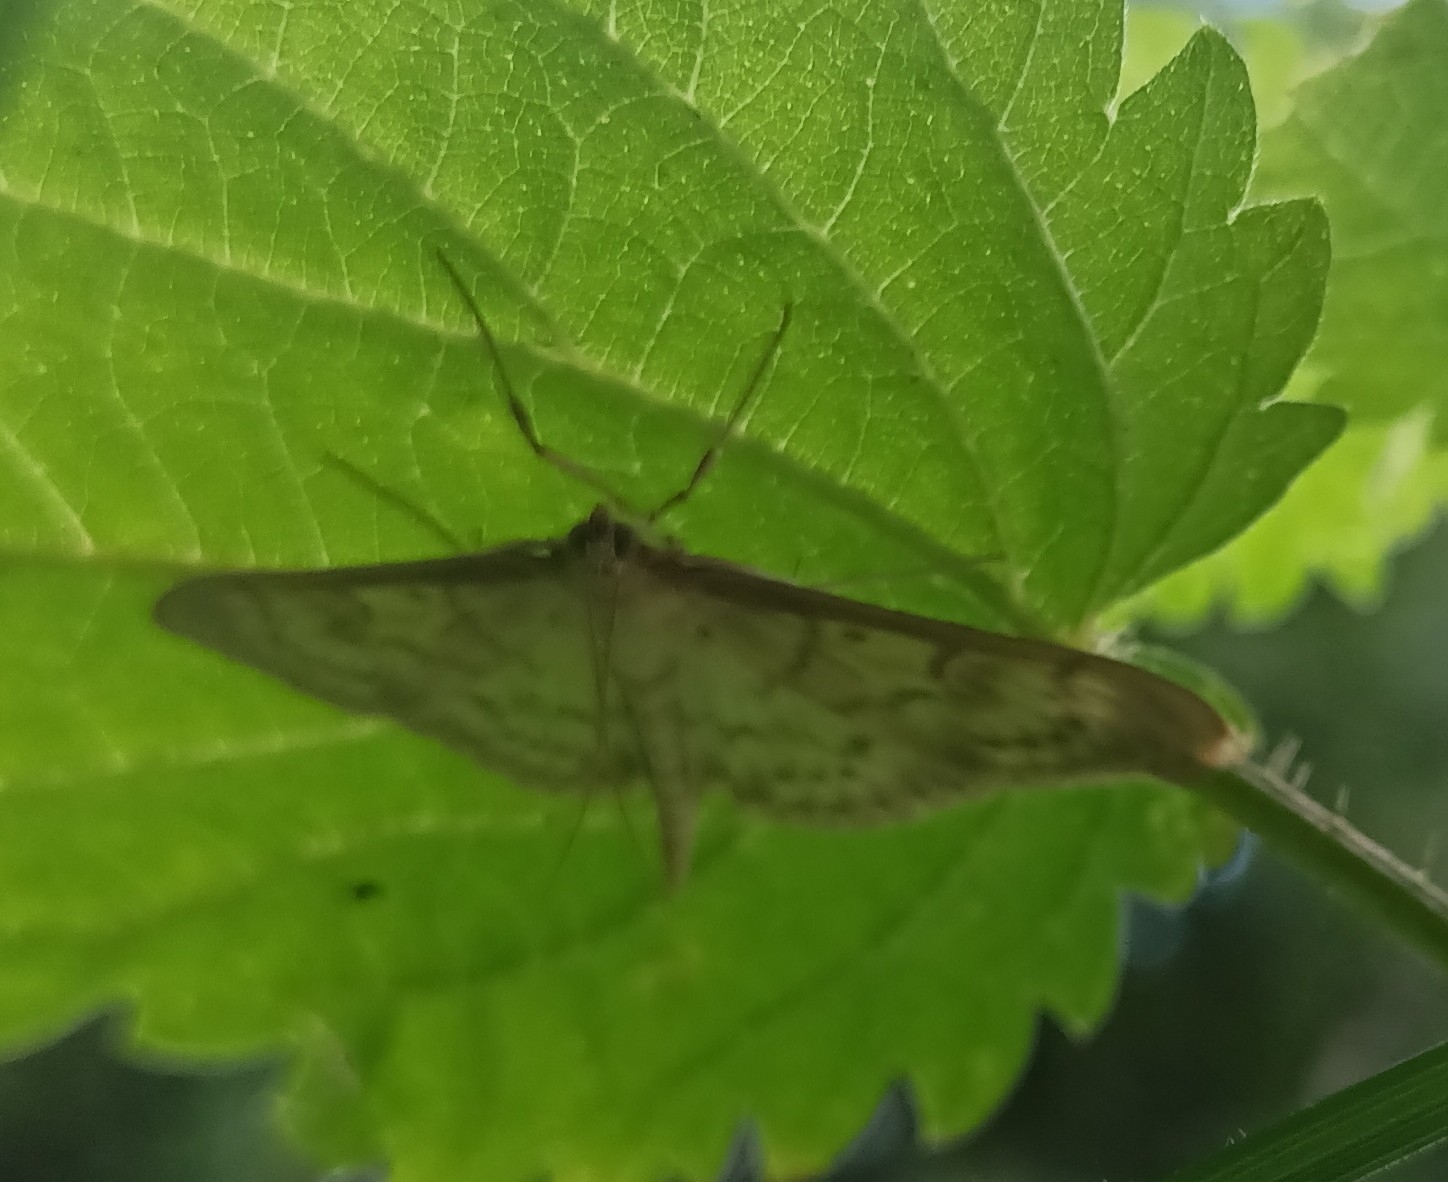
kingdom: Animalia
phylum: Arthropoda
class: Insecta
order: Lepidoptera
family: Crambidae
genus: Patania
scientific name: Patania ruralis
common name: Mother of pearl
